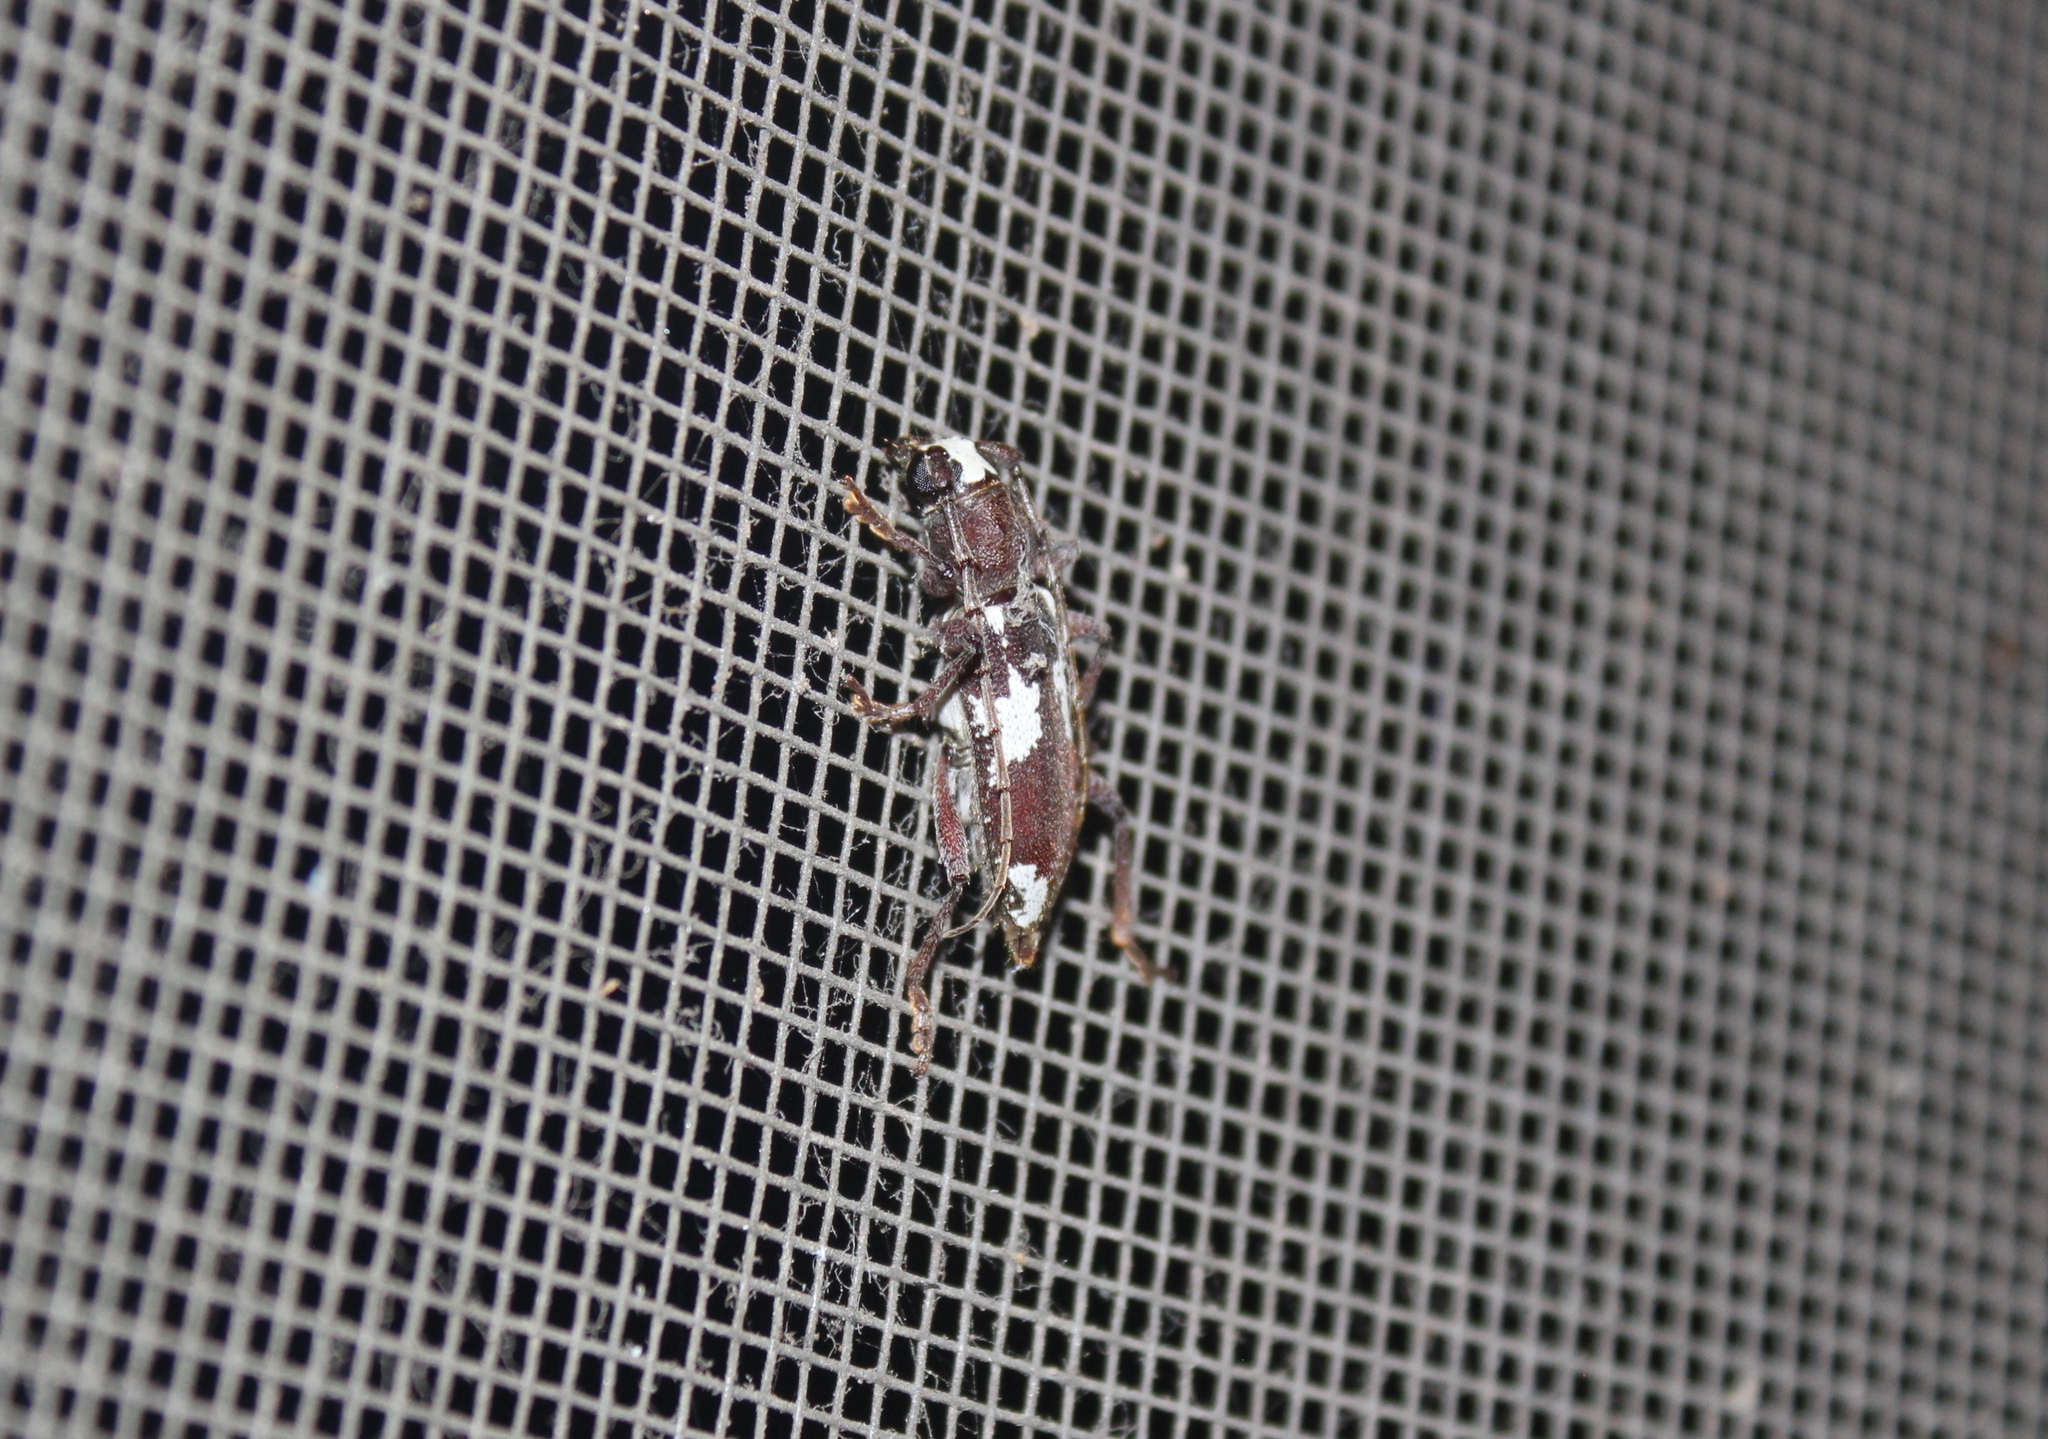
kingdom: Animalia
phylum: Arthropoda
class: Insecta
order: Coleoptera
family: Cerambycidae
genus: Enaphalodes
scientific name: Enaphalodes coronatus
